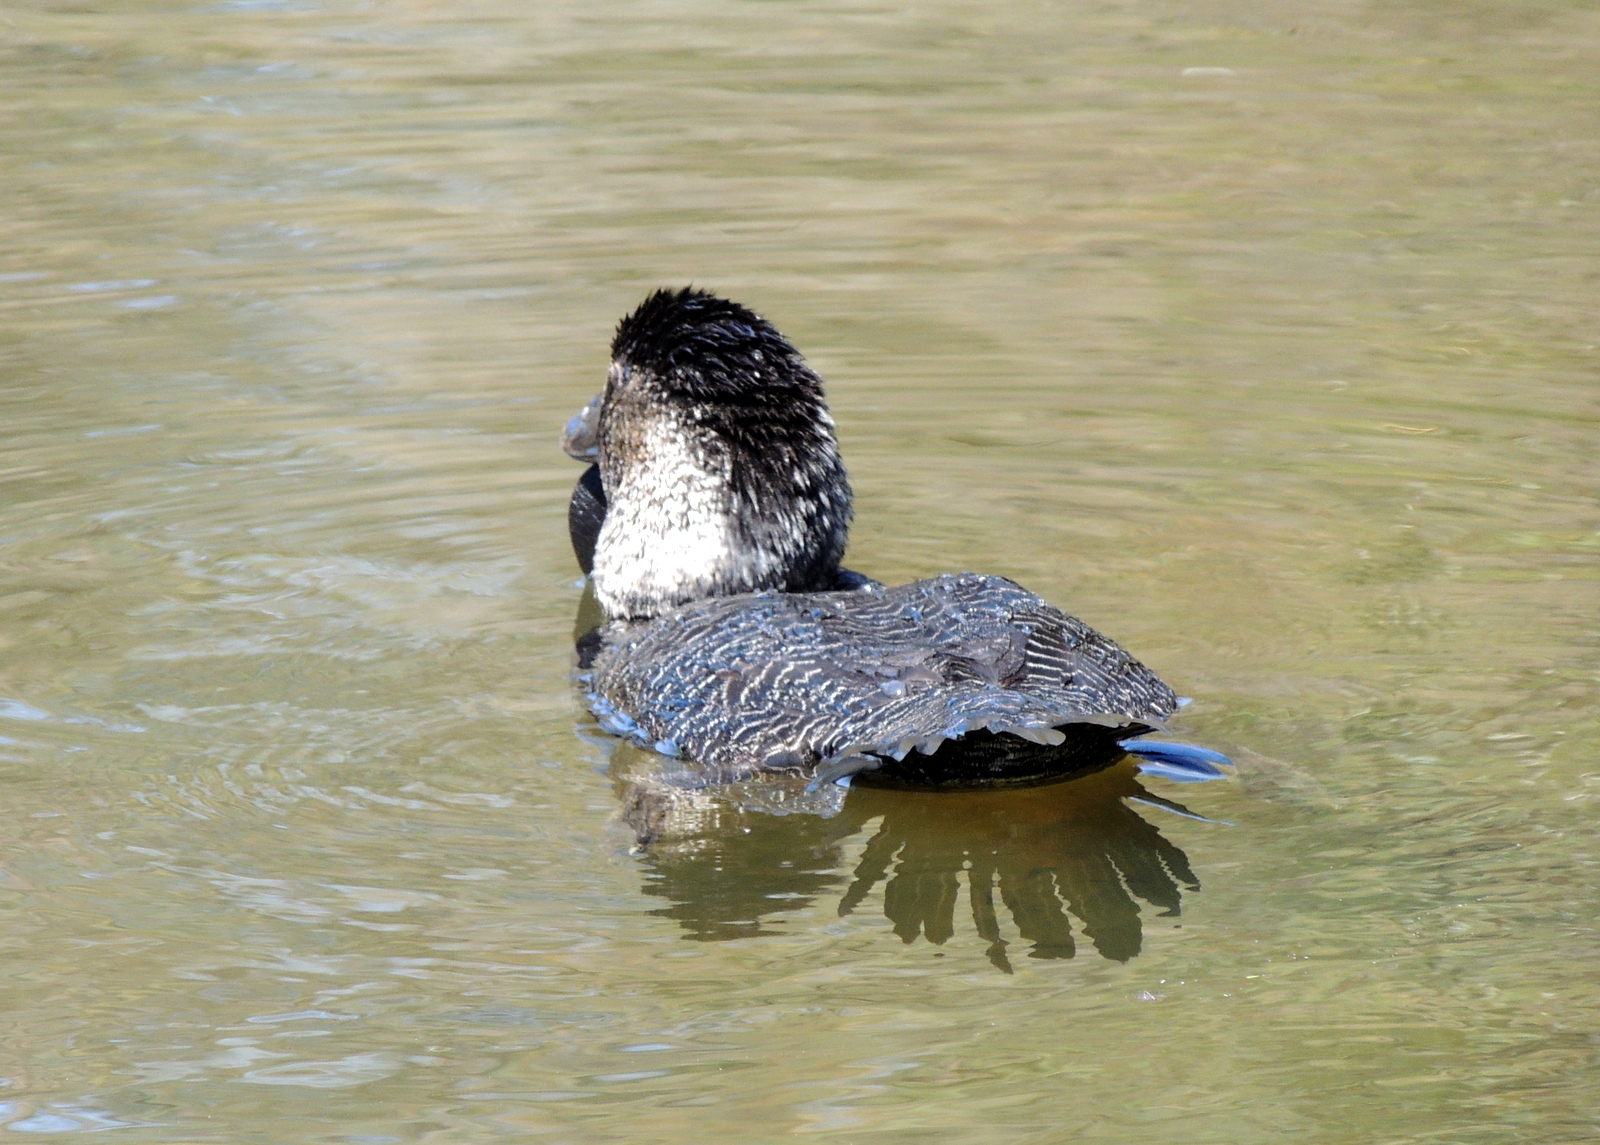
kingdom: Animalia
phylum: Chordata
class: Aves
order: Anseriformes
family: Anatidae
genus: Biziura
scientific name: Biziura lobata
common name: Musk duck
